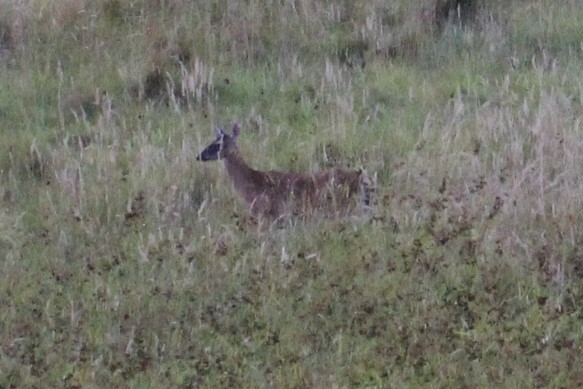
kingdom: Animalia
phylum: Chordata
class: Mammalia
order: Artiodactyla
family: Cervidae
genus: Odocoileus
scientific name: Odocoileus virginianus
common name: White-tailed deer
